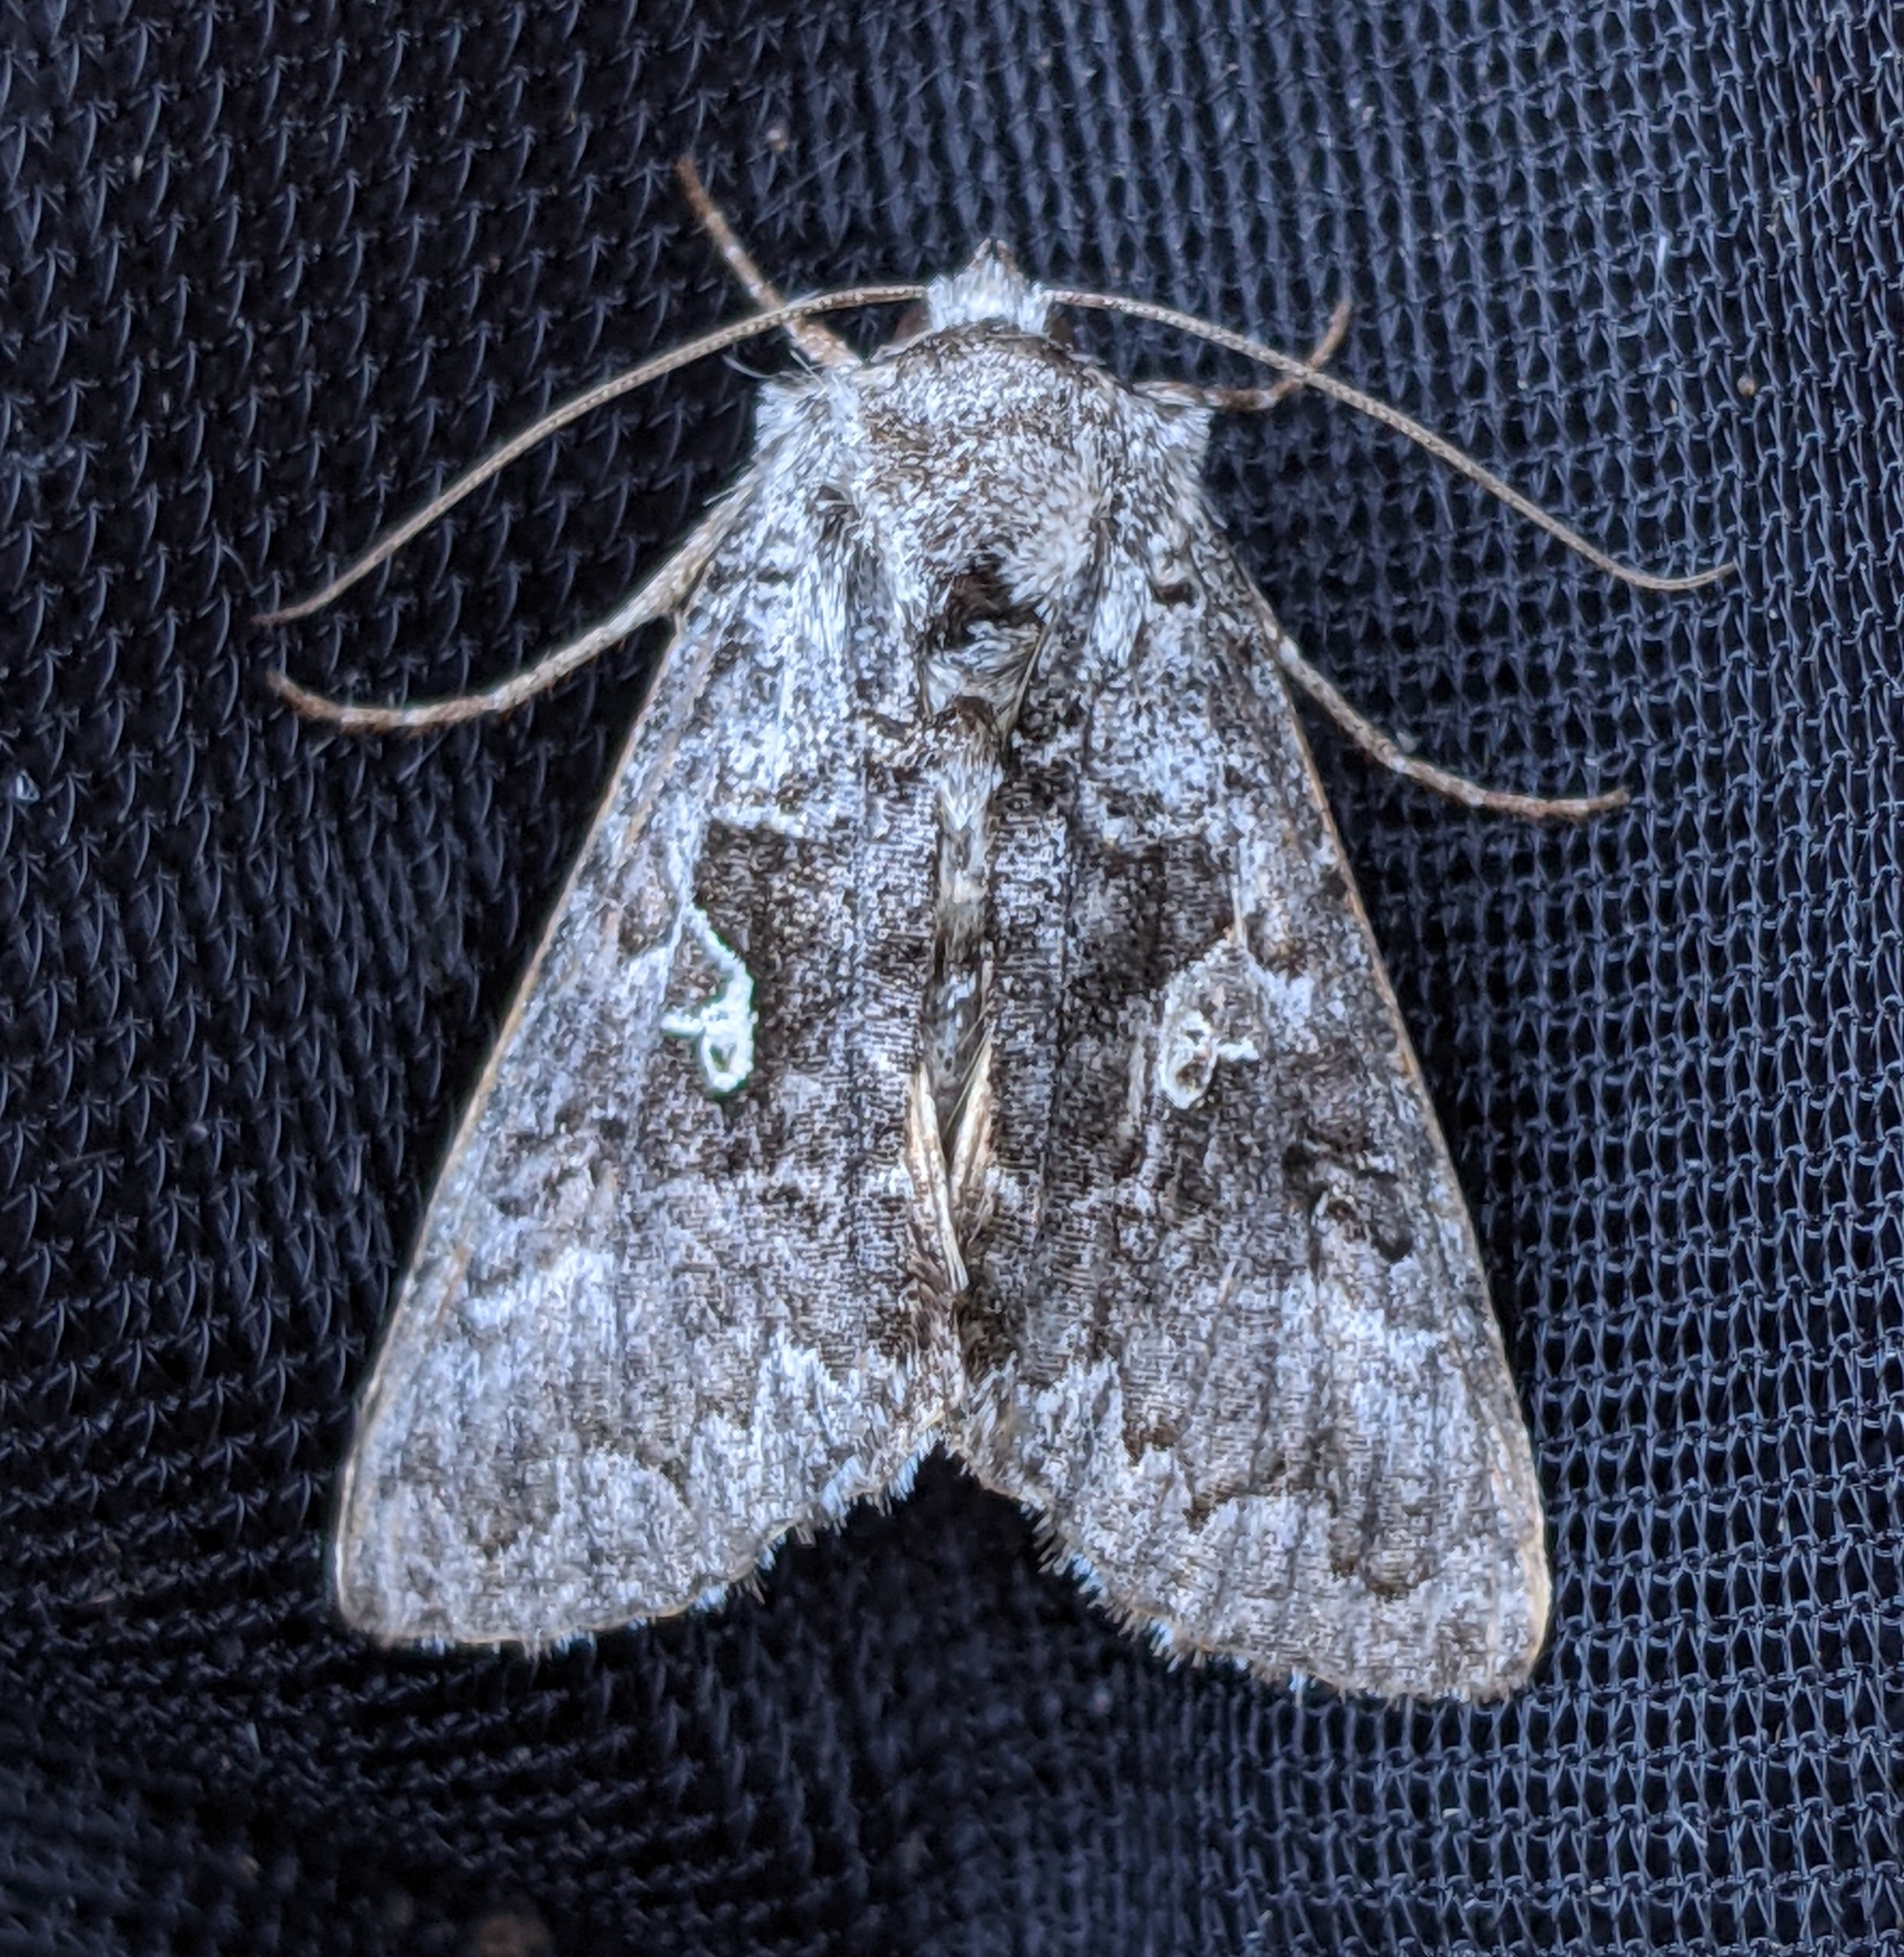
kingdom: Animalia
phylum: Arthropoda
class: Insecta
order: Lepidoptera
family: Noctuidae
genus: Syngrapha
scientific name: Syngrapha viridisigma
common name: Spruce false looper moth
